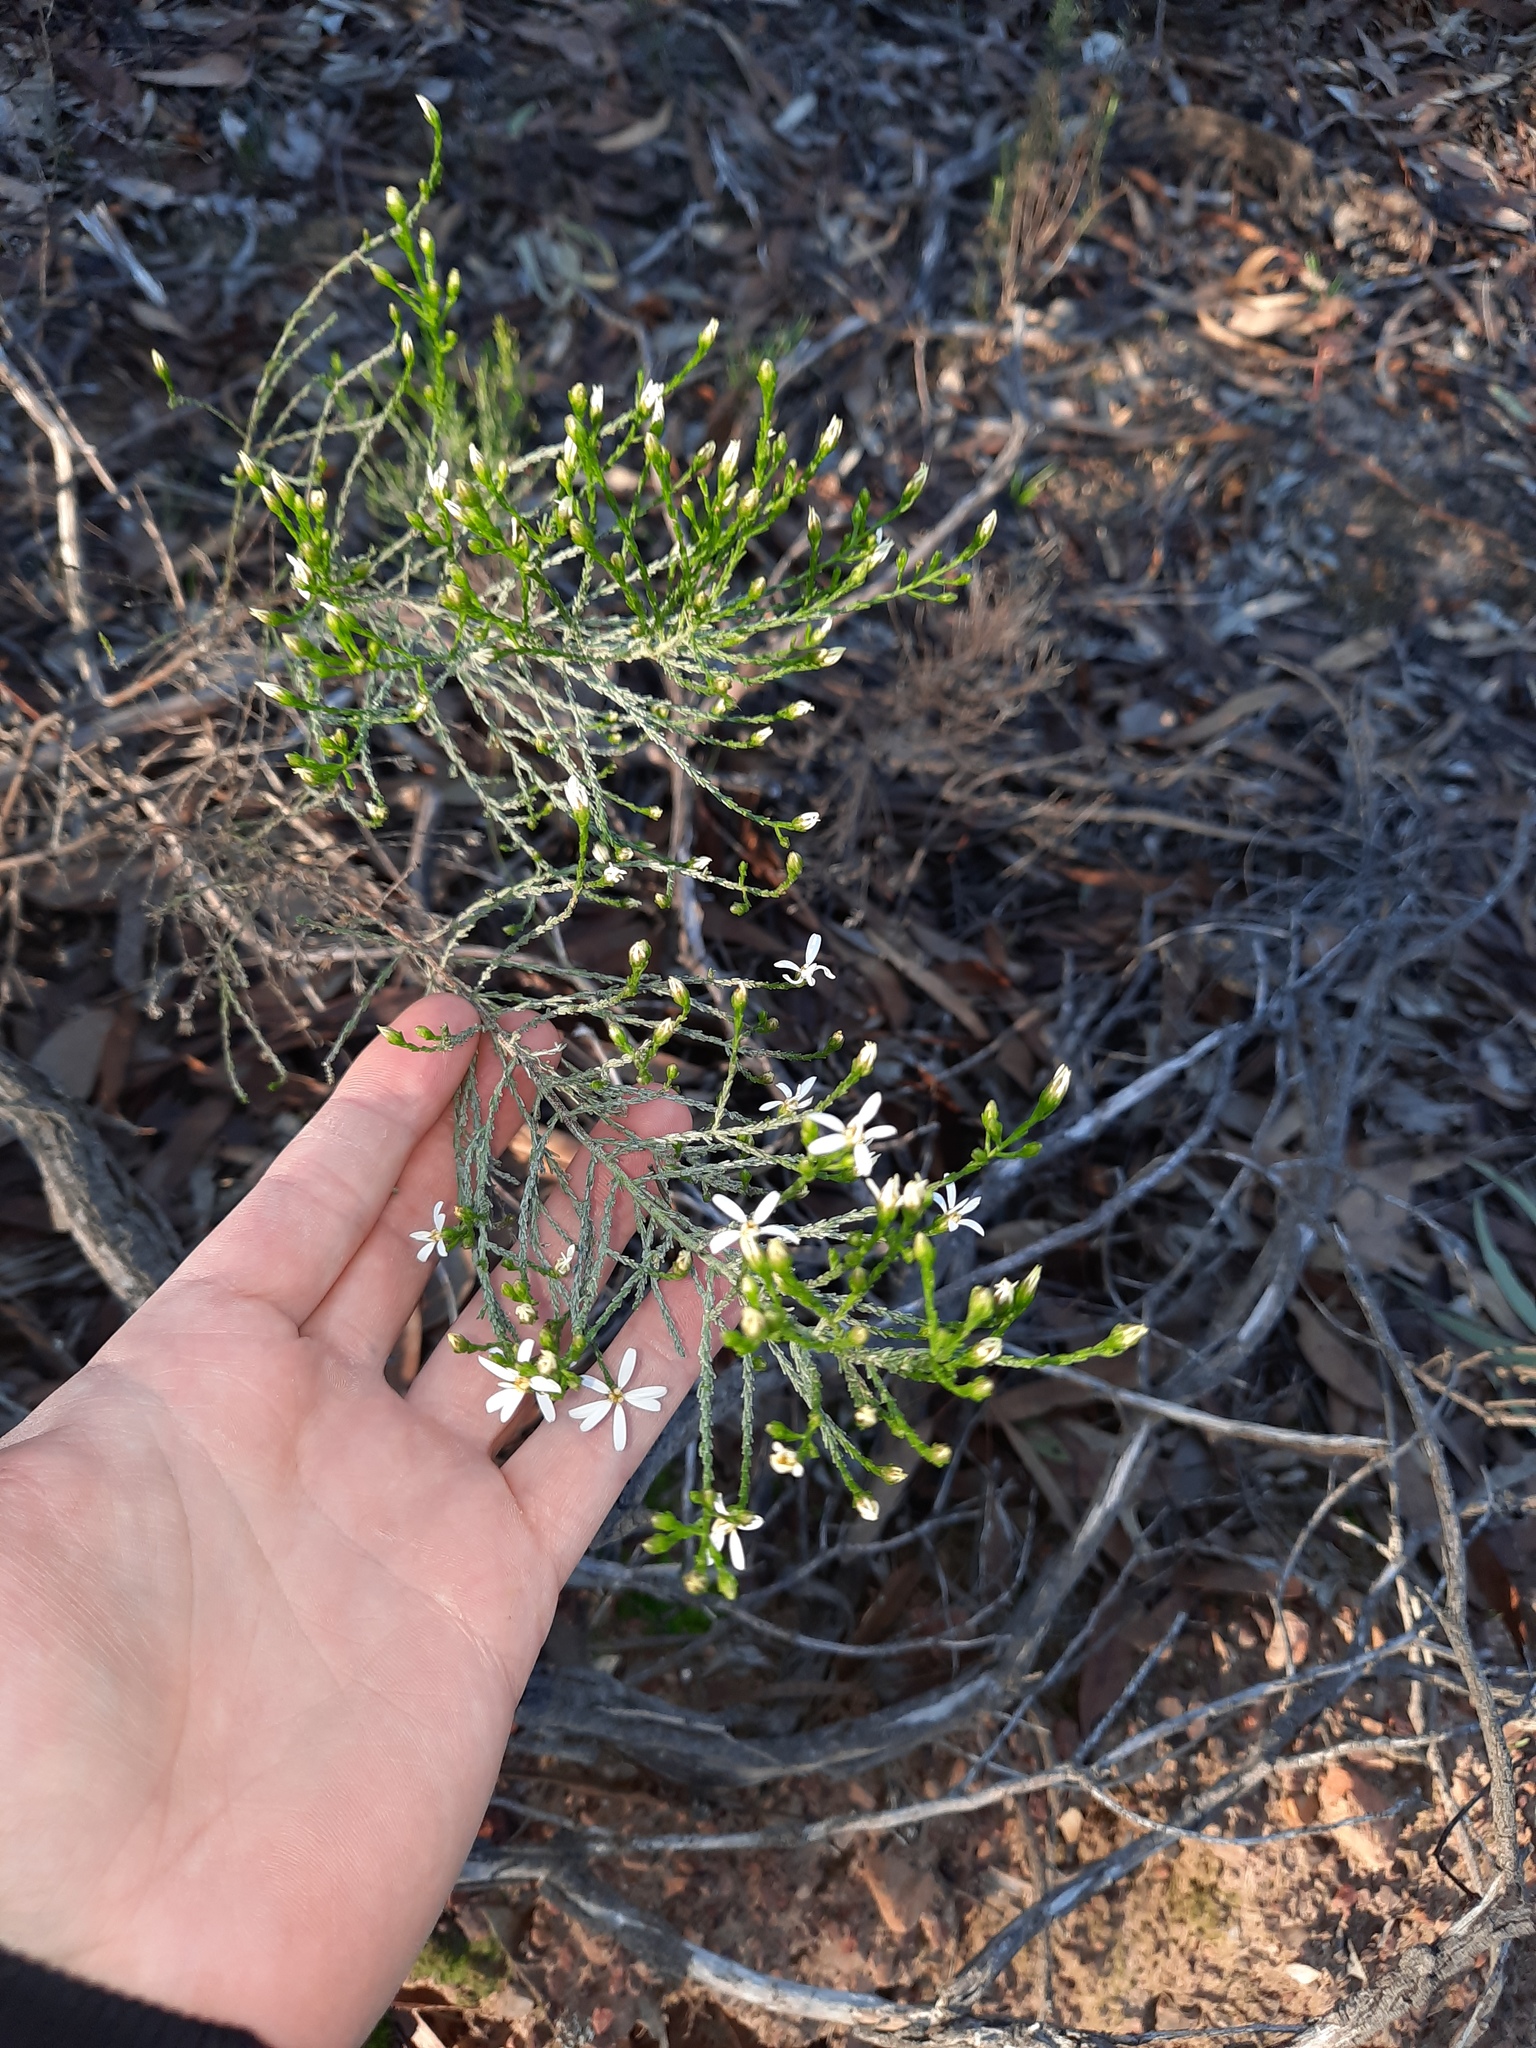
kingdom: Plantae
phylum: Tracheophyta
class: Magnoliopsida
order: Asterales
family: Asteraceae
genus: Olearia
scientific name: Olearia teretifolia
